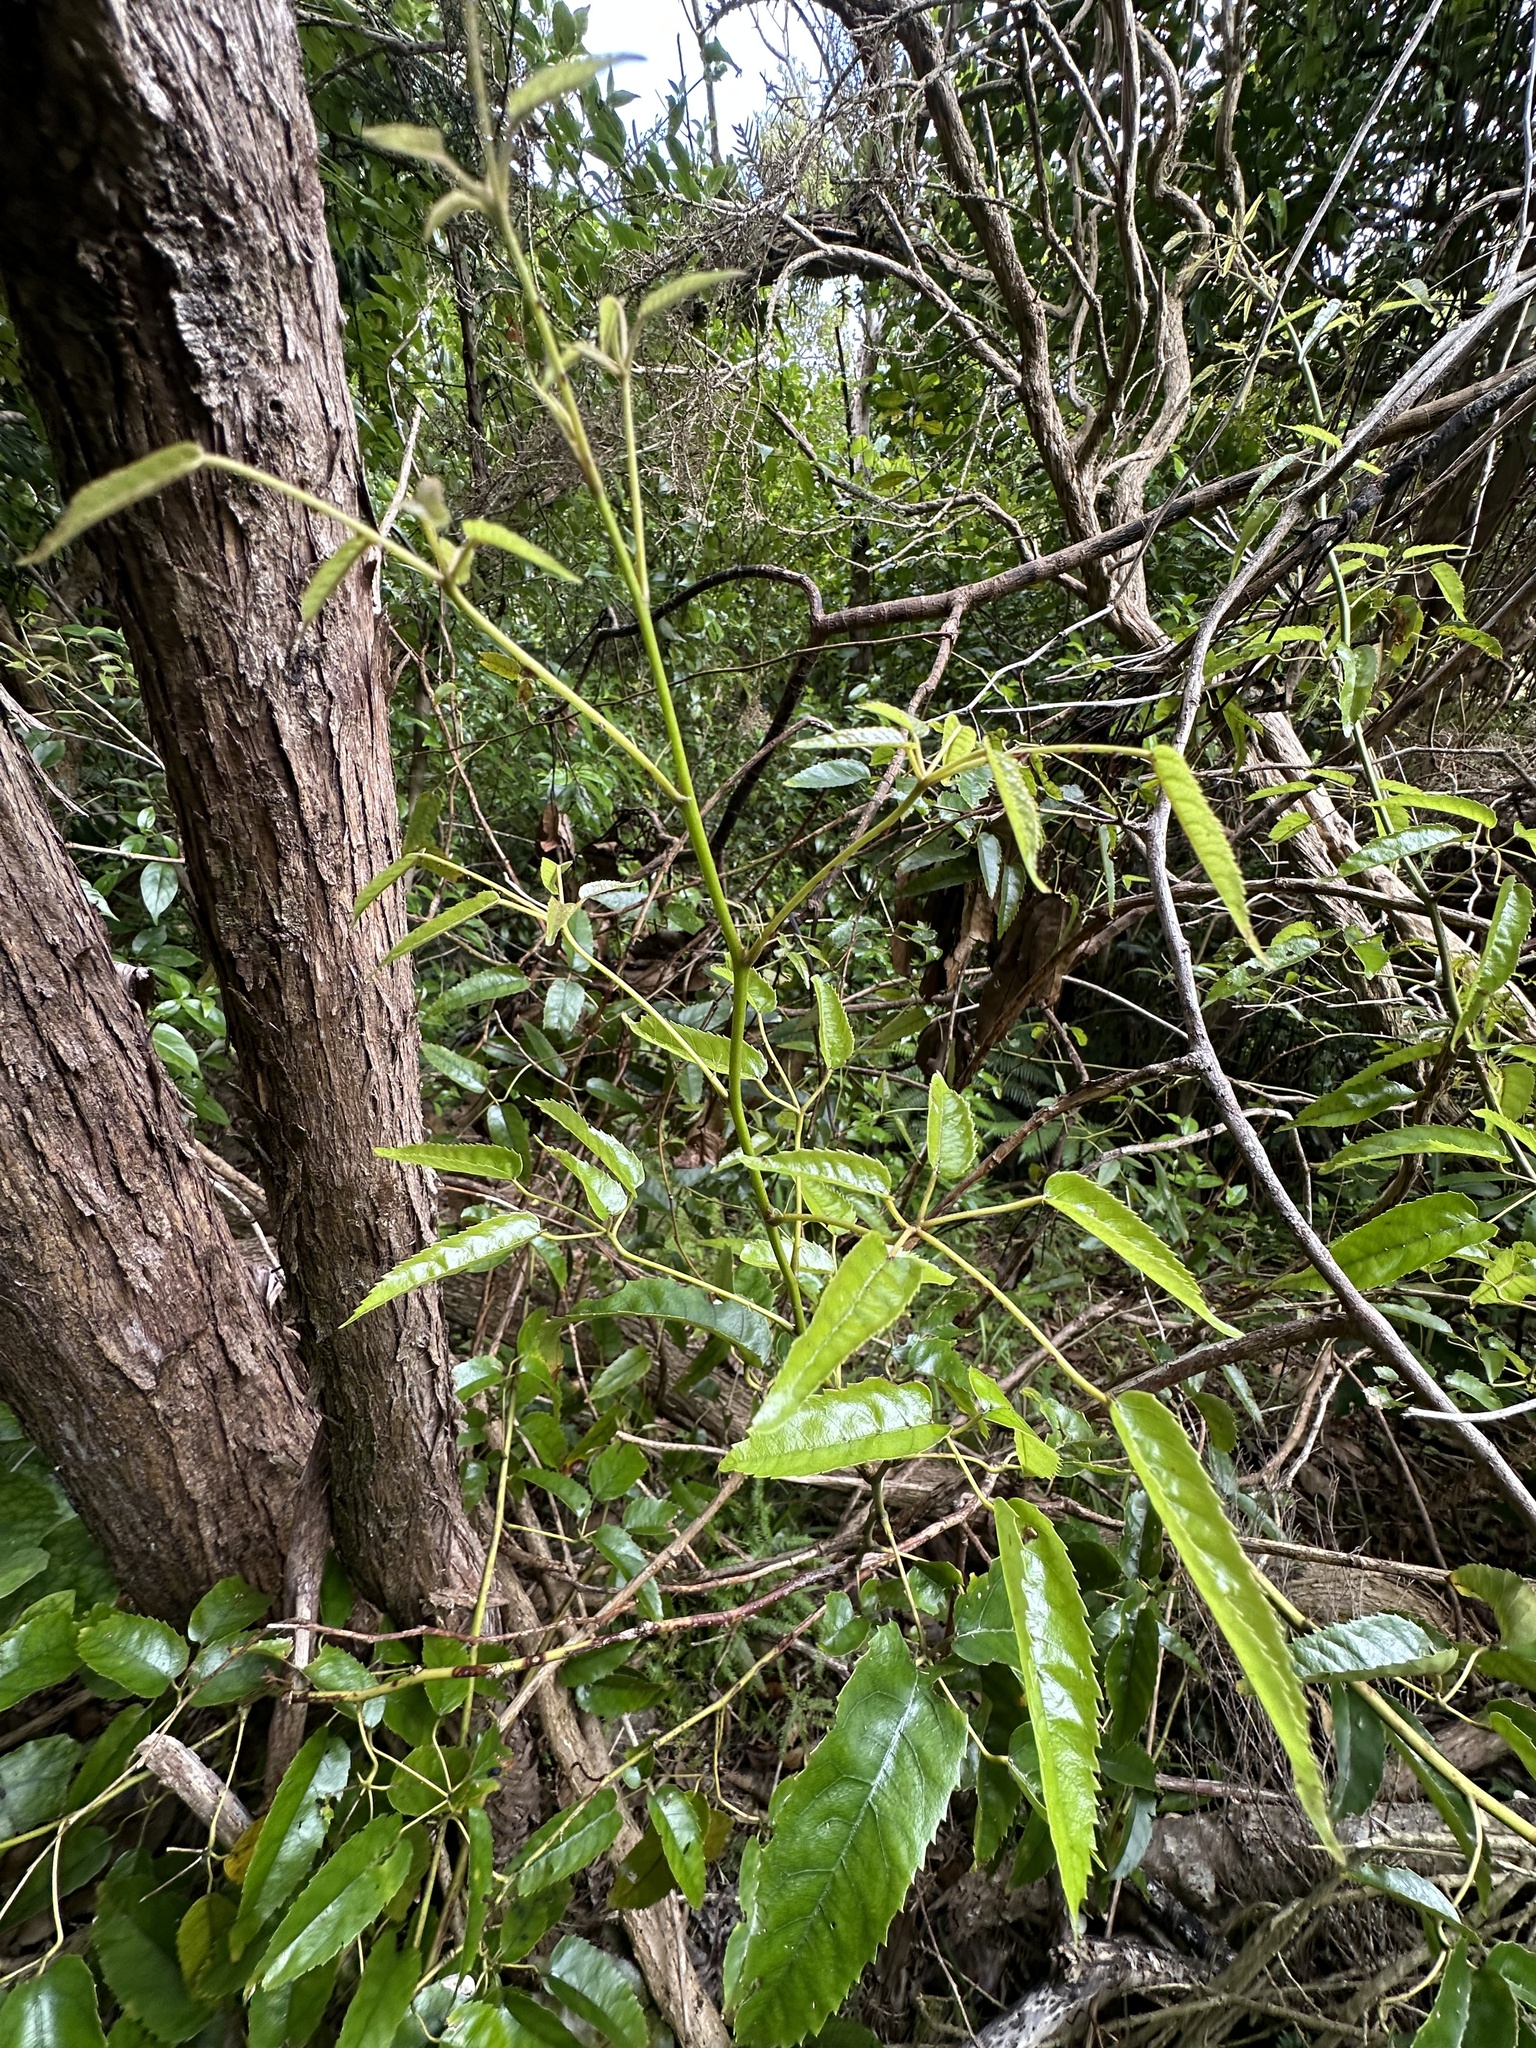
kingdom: Plantae
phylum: Tracheophyta
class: Magnoliopsida
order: Rosales
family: Rosaceae
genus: Rubus
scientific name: Rubus cissoides
